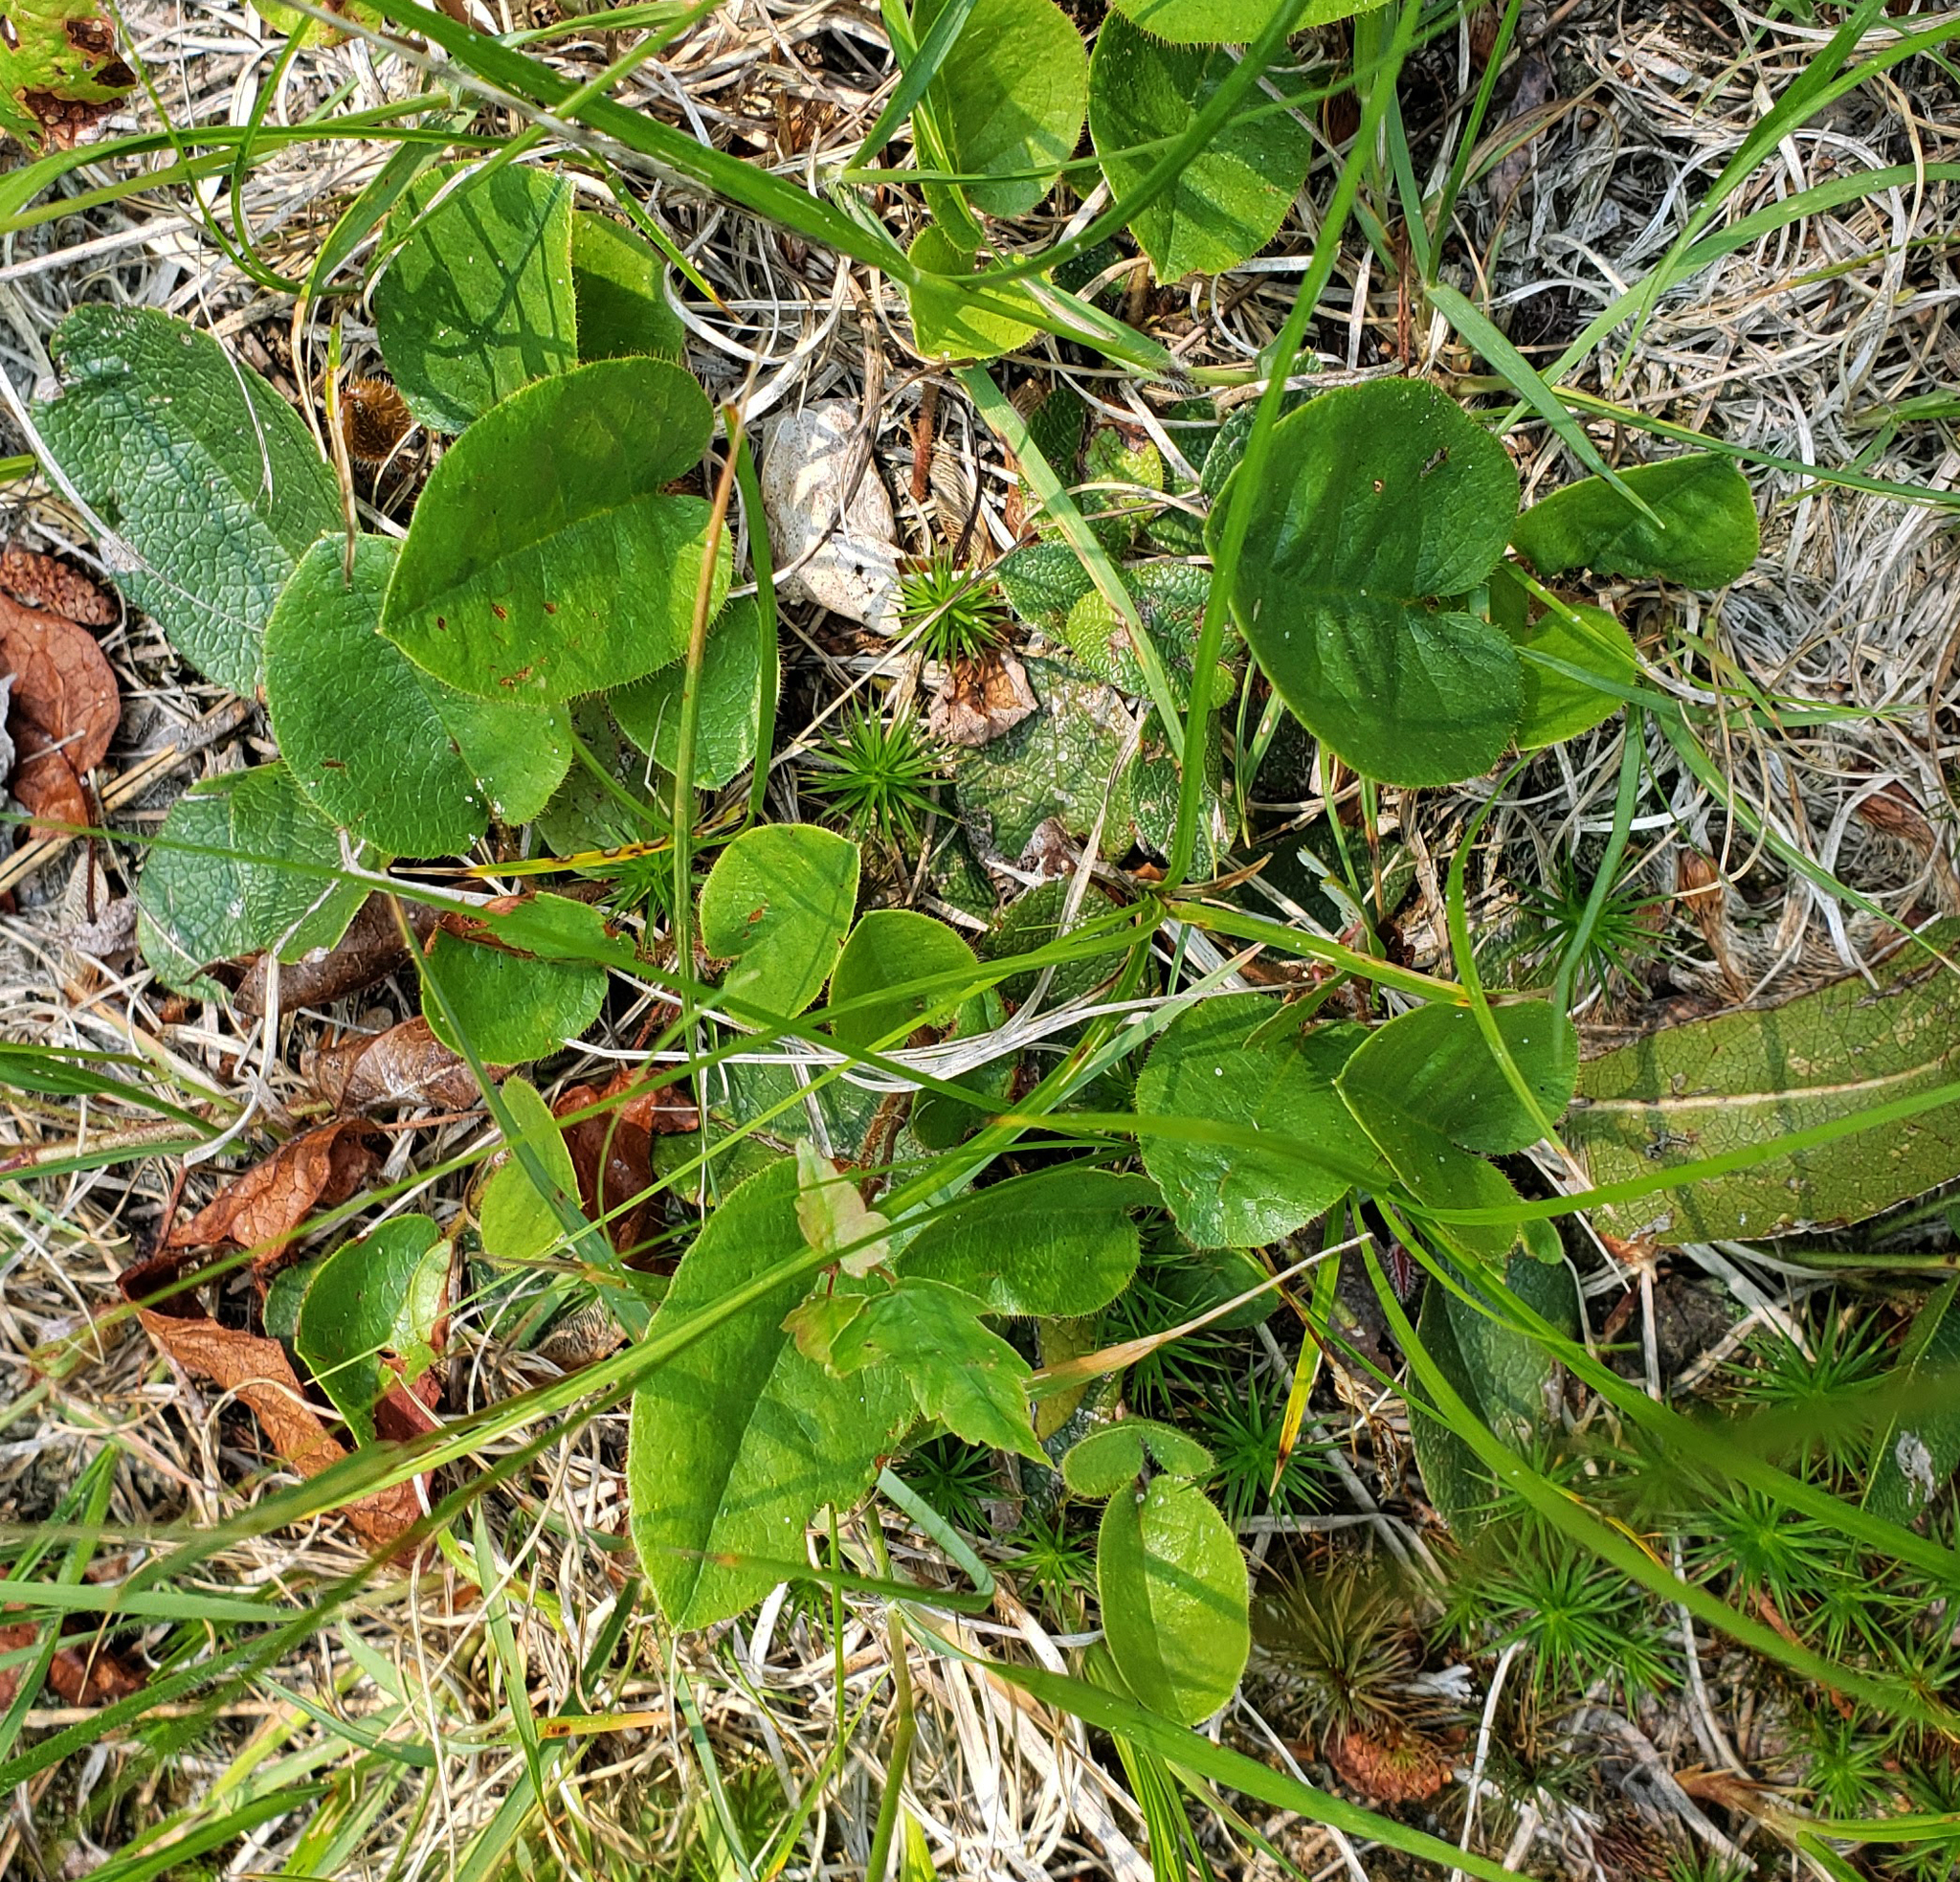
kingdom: Plantae
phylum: Tracheophyta
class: Magnoliopsida
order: Ericales
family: Ericaceae
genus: Epigaea
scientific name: Epigaea repens
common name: Gravelroot
